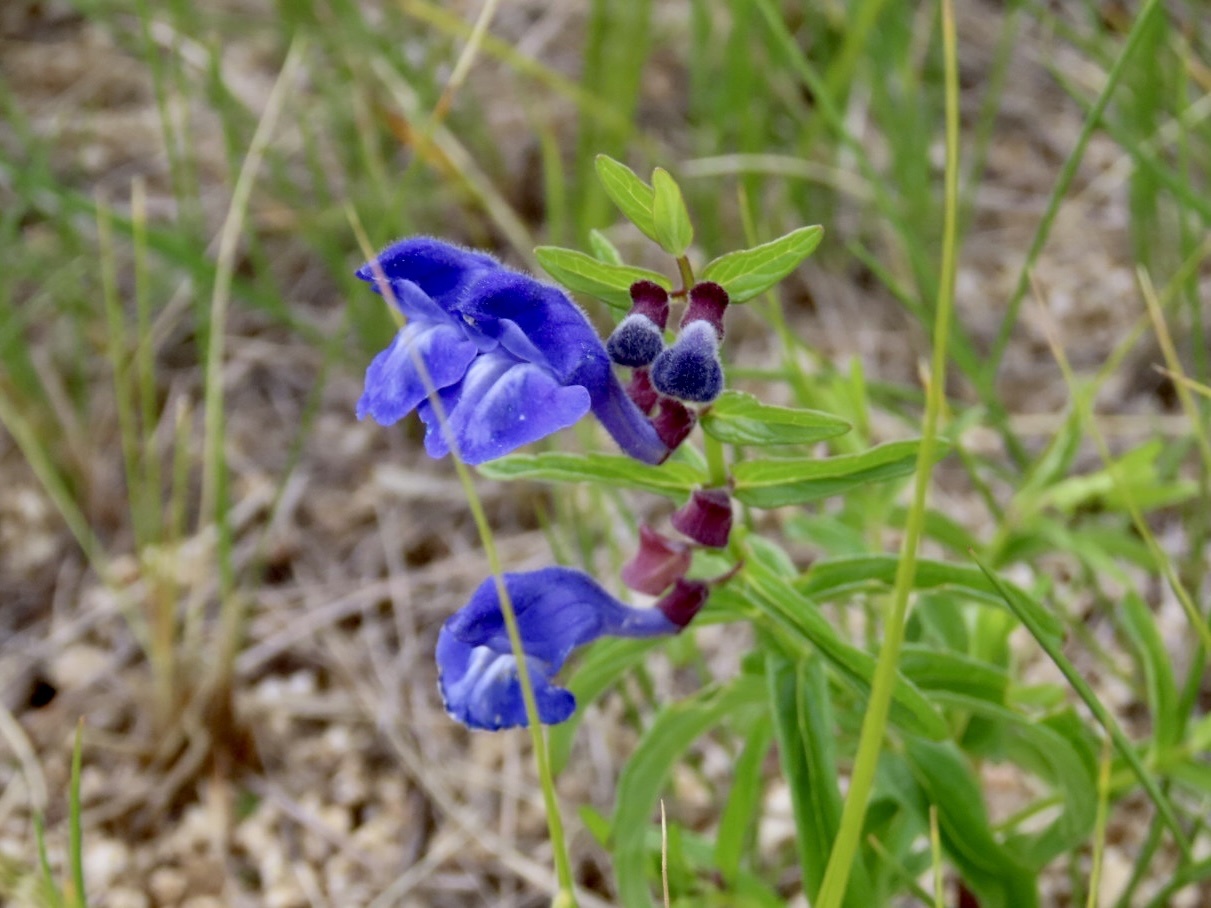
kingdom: Plantae
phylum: Tracheophyta
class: Magnoliopsida
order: Lamiales
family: Lamiaceae
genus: Scutellaria
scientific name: Scutellaria scordiifolia
